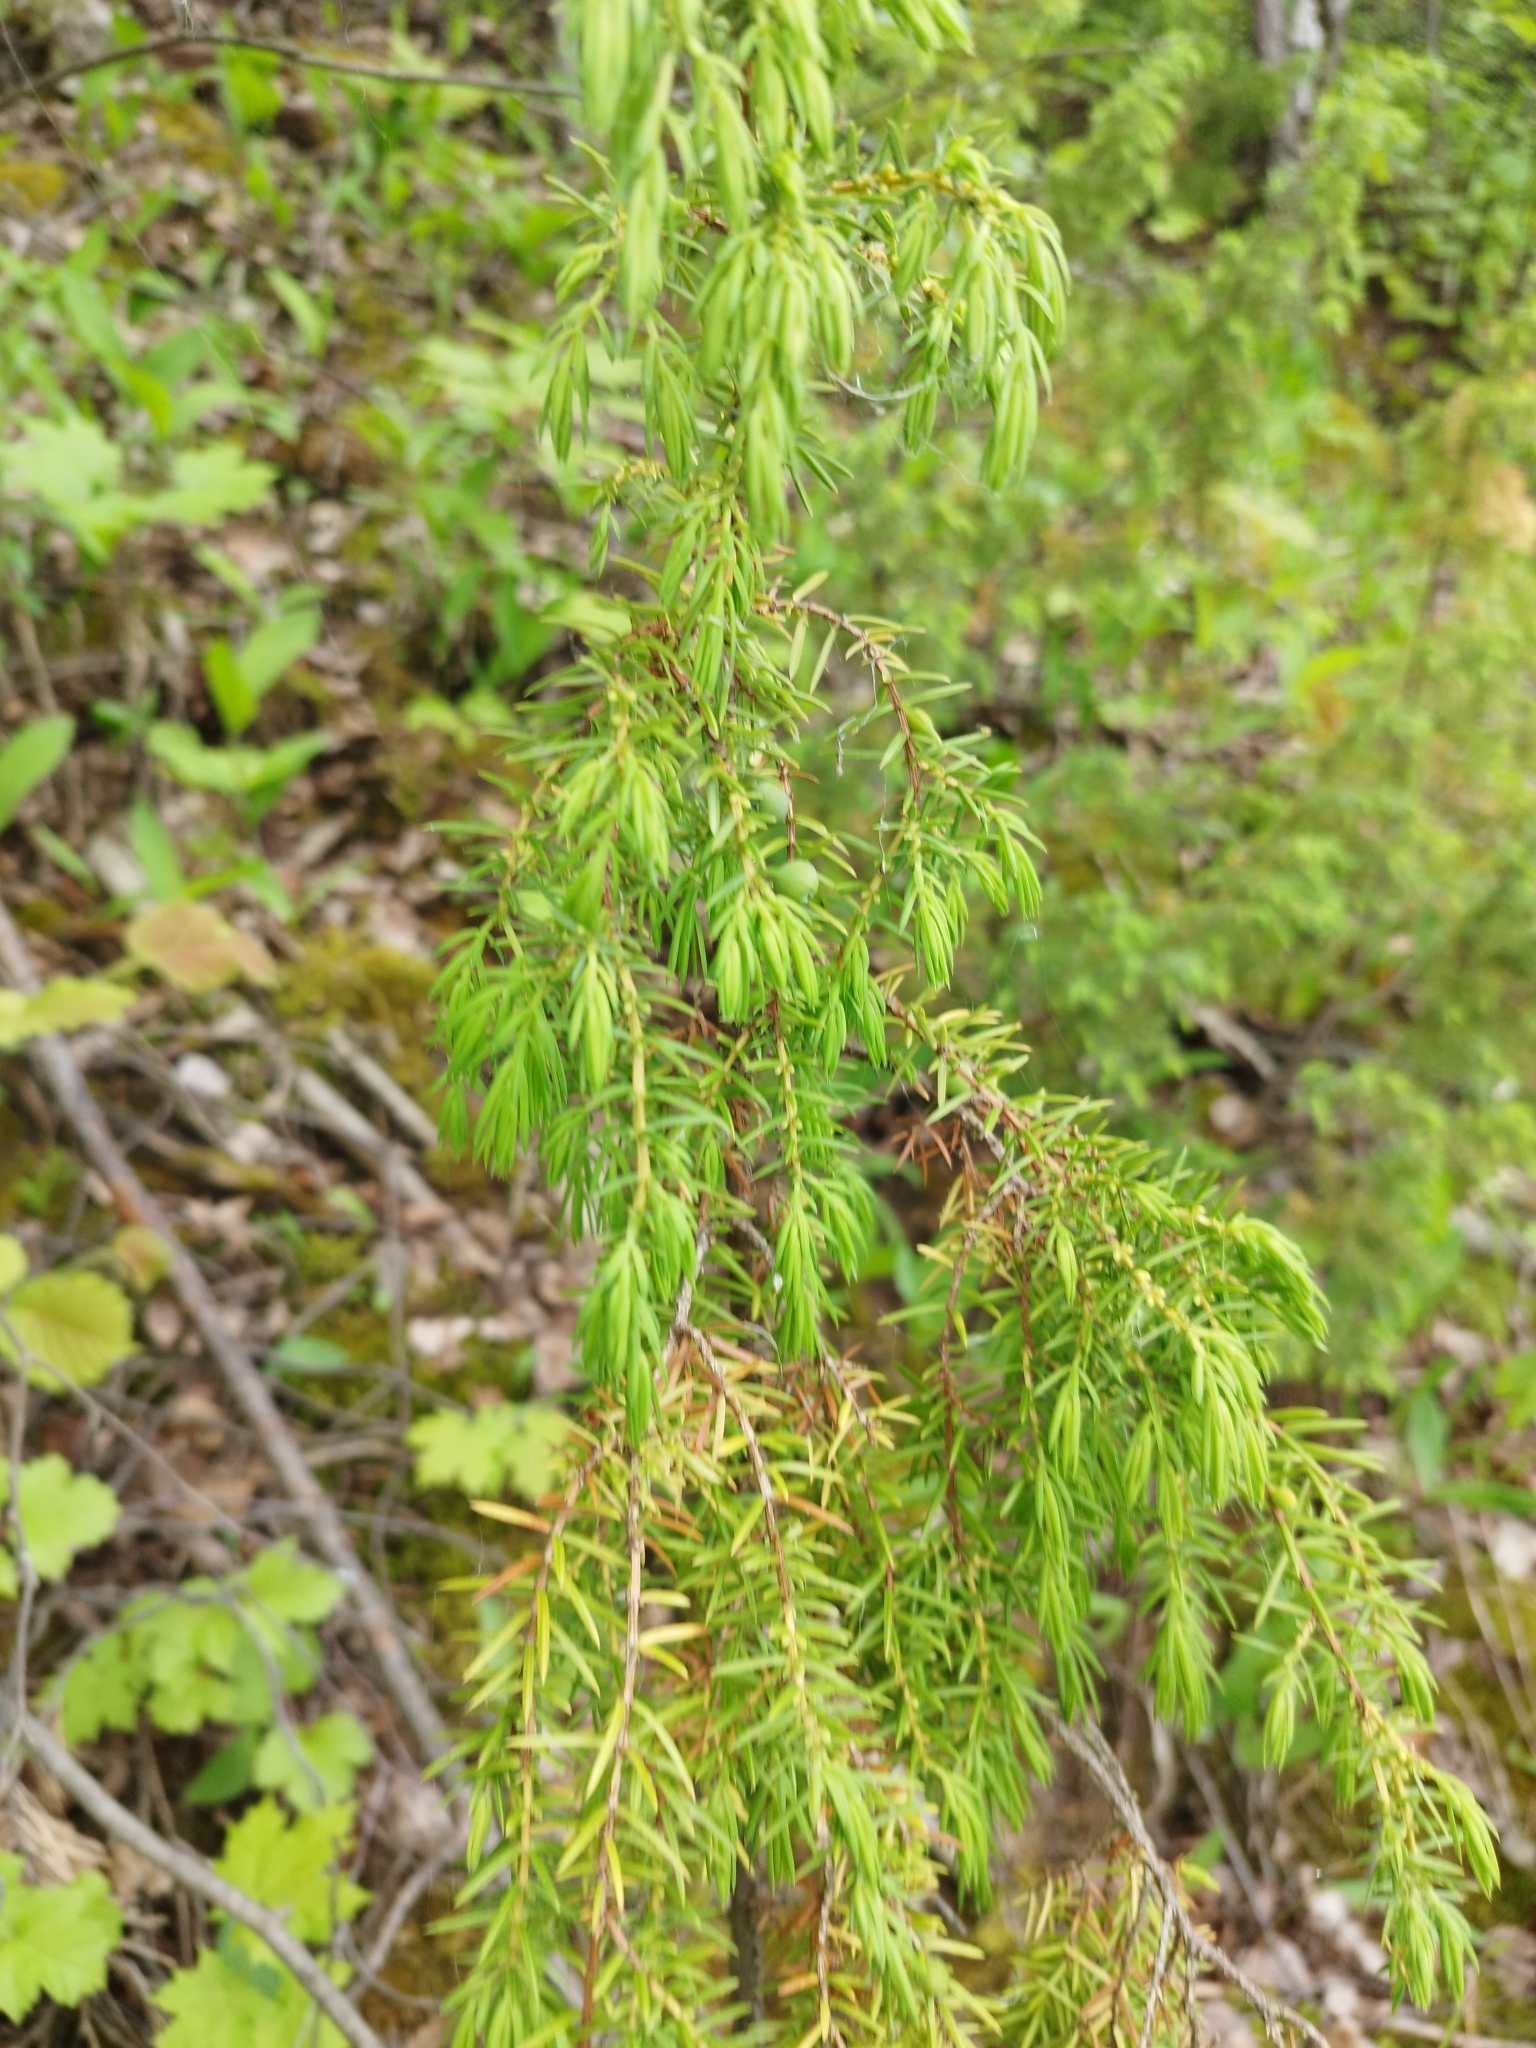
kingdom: Plantae
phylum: Tracheophyta
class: Pinopsida
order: Pinales
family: Cupressaceae
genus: Juniperus
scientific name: Juniperus communis
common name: Common juniper
